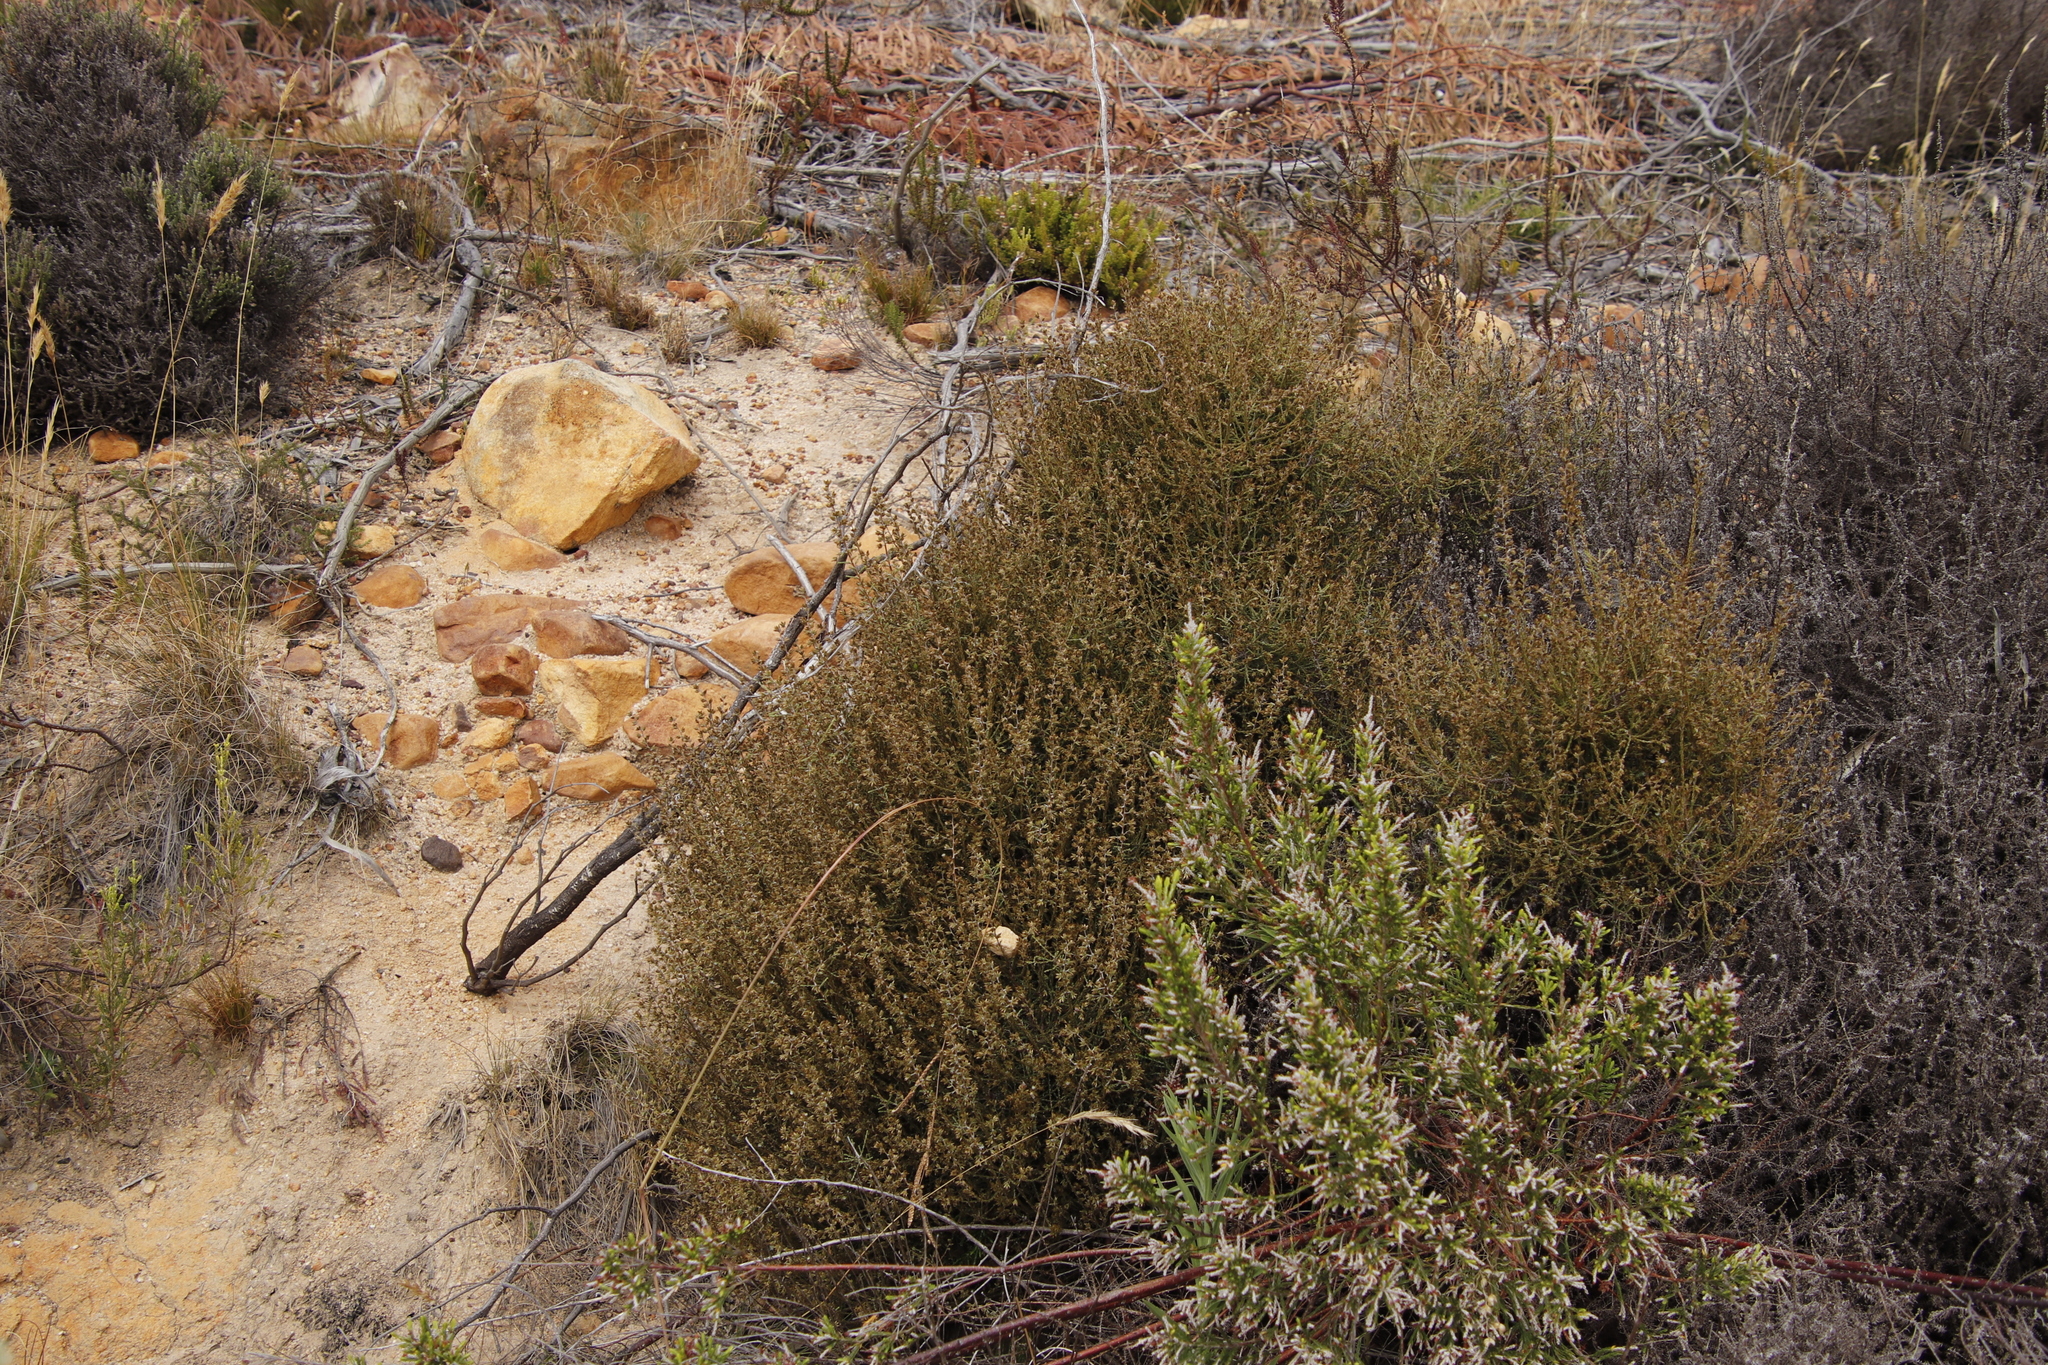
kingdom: Plantae
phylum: Tracheophyta
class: Magnoliopsida
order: Asterales
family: Asteraceae
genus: Myrovernix
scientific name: Myrovernix scaber
